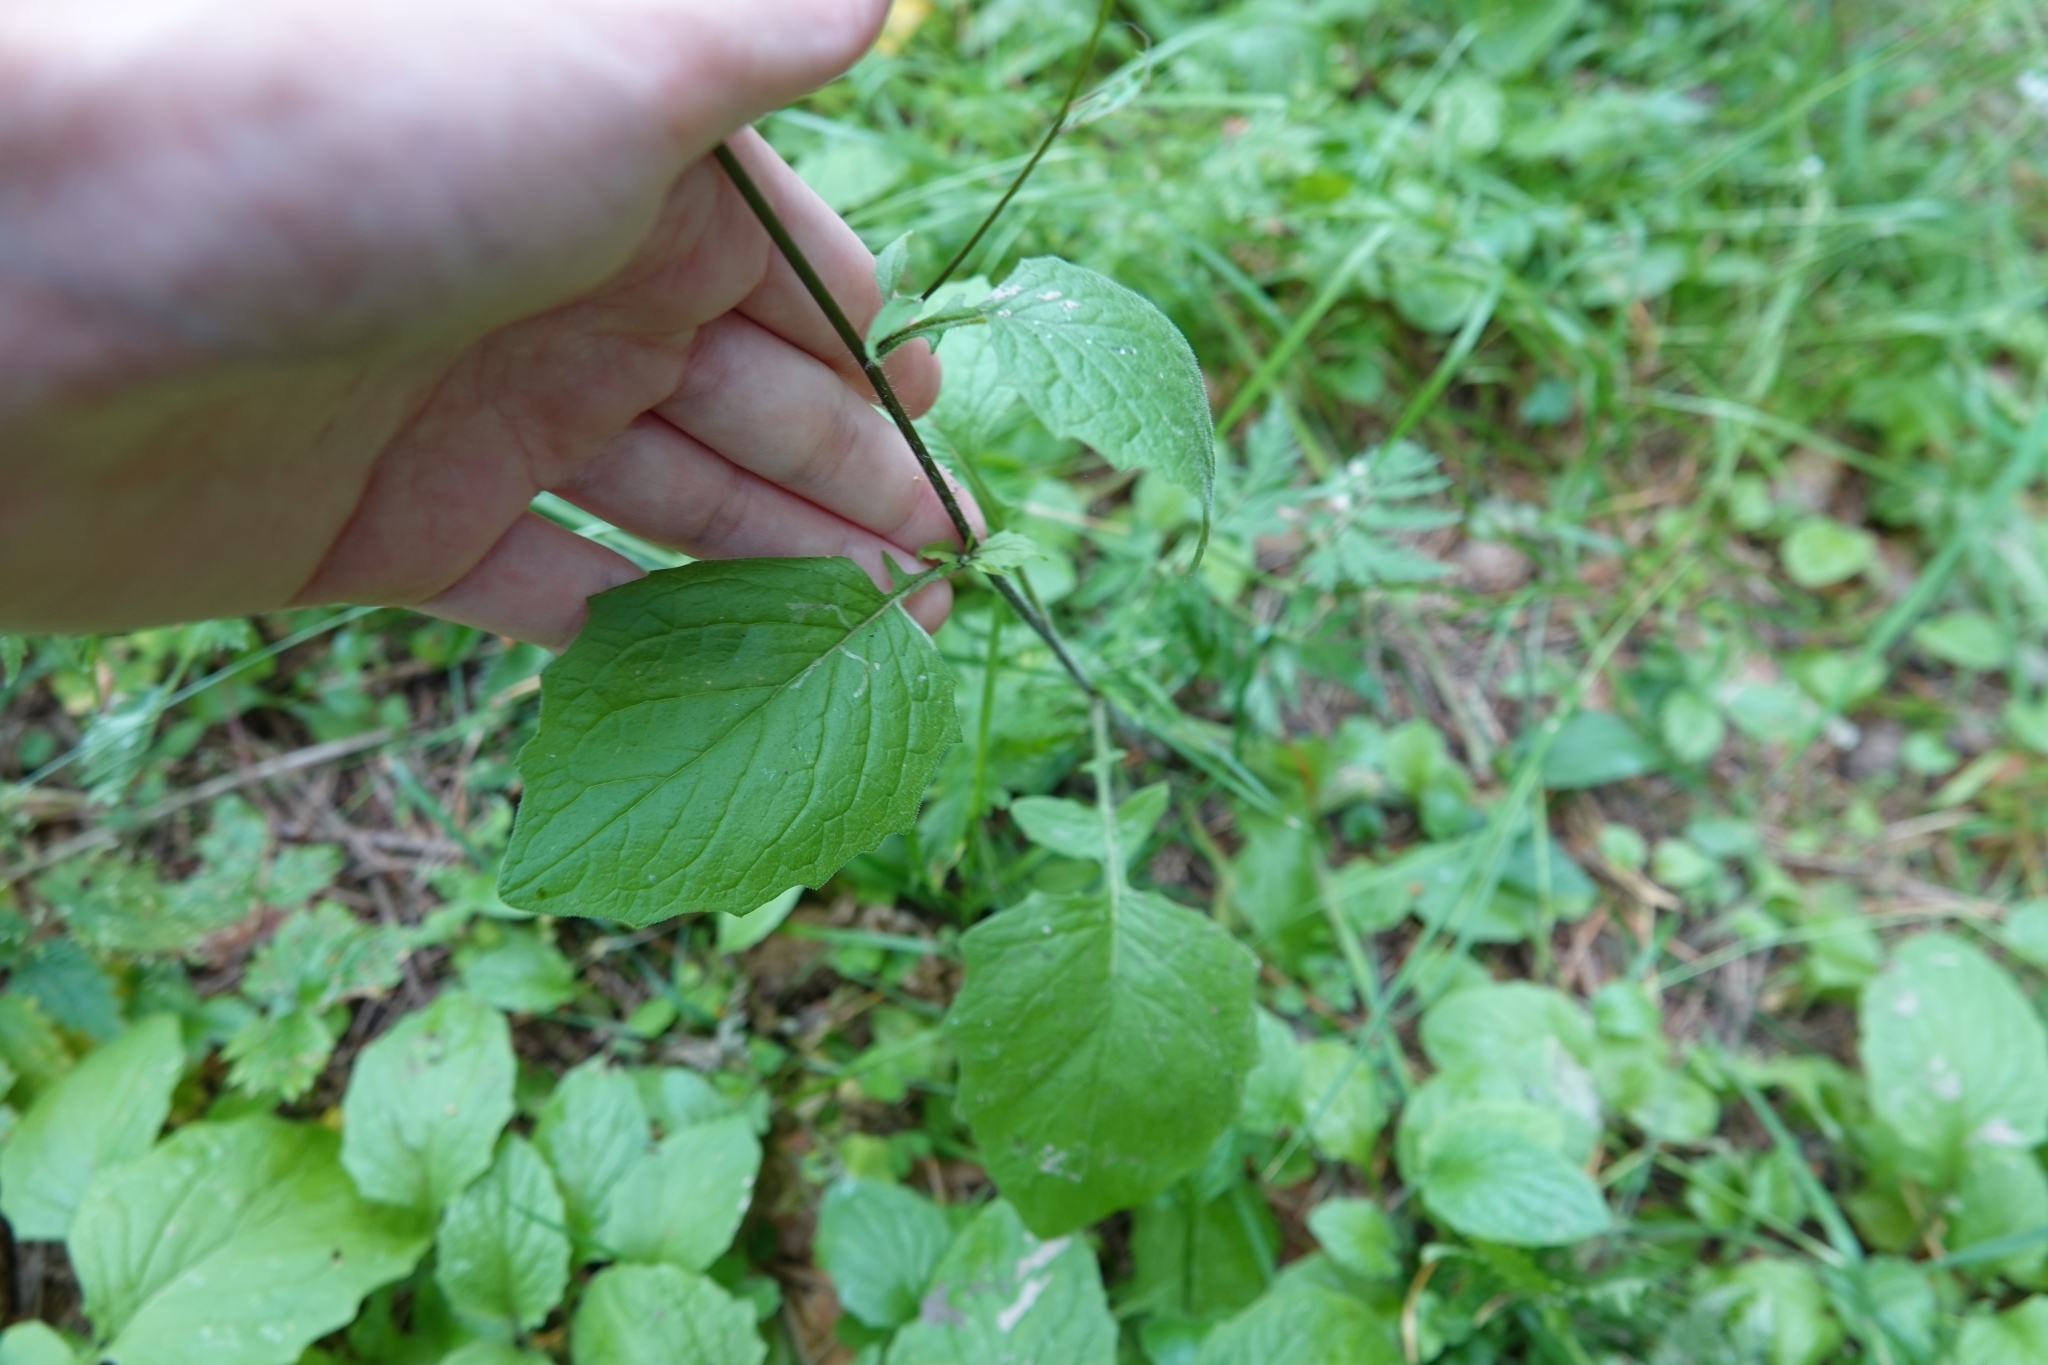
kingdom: Plantae
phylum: Tracheophyta
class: Magnoliopsida
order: Asterales
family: Asteraceae
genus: Lapsana
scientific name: Lapsana communis
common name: Nipplewort
